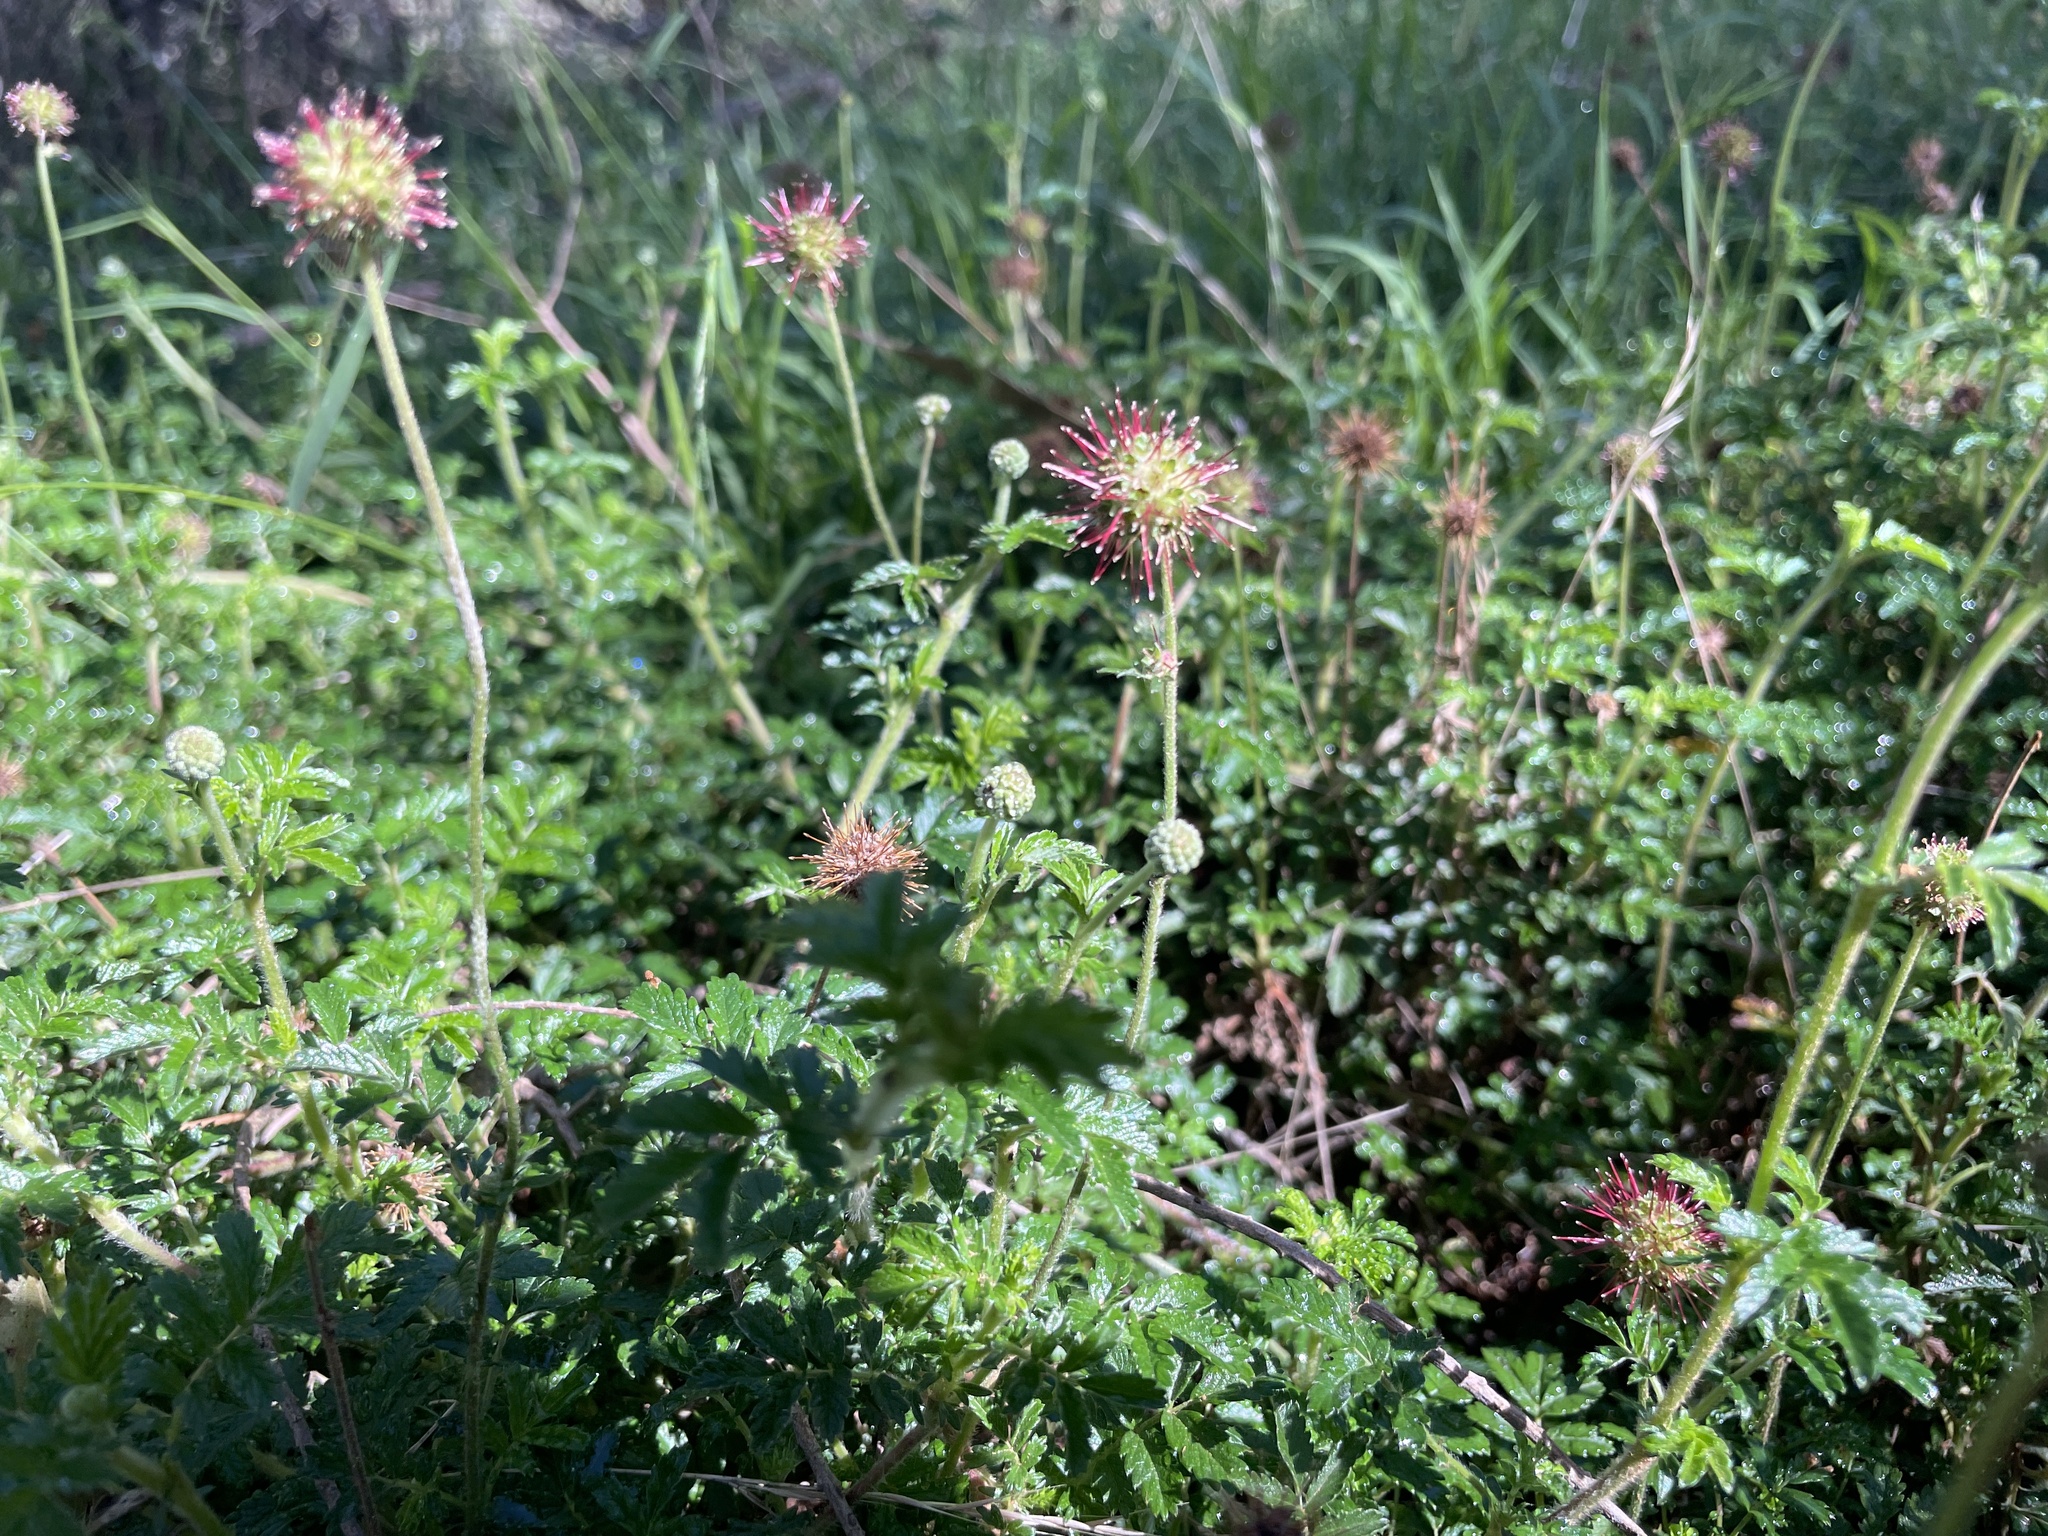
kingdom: Plantae
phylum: Tracheophyta
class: Magnoliopsida
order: Rosales
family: Rosaceae
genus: Acaena
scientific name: Acaena novae-zelandiae
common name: Pirri-pirri-bur
